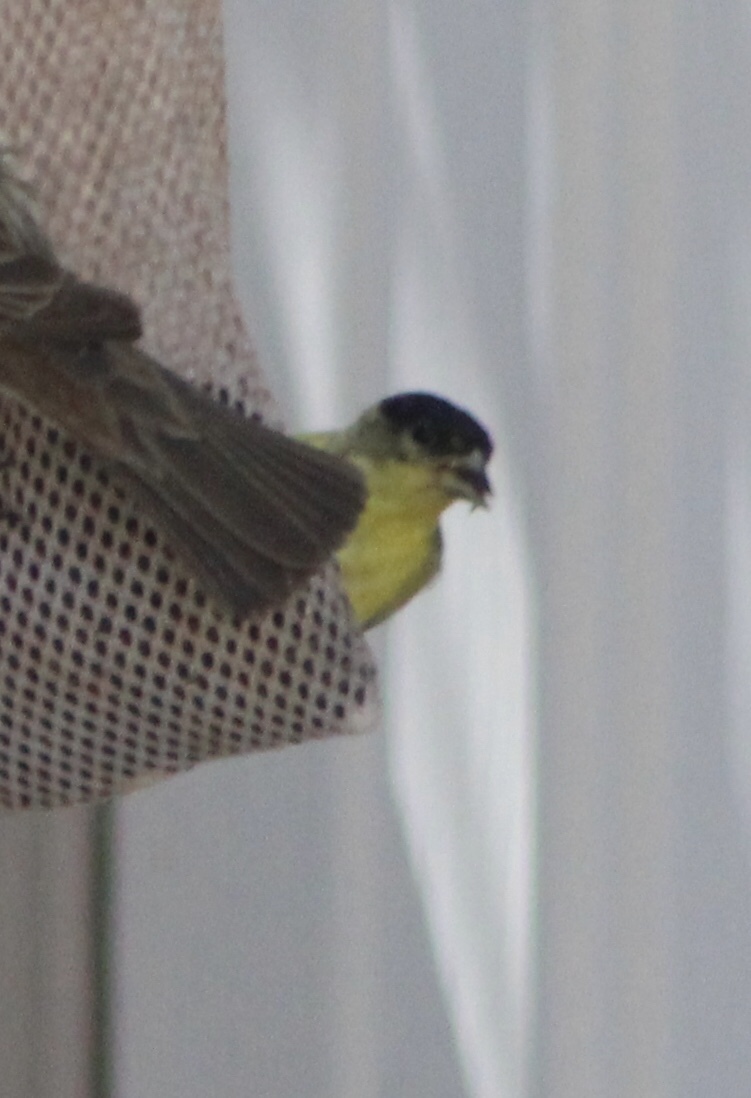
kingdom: Animalia
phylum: Chordata
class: Aves
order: Passeriformes
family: Fringillidae
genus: Spinus
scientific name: Spinus psaltria
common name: Lesser goldfinch
